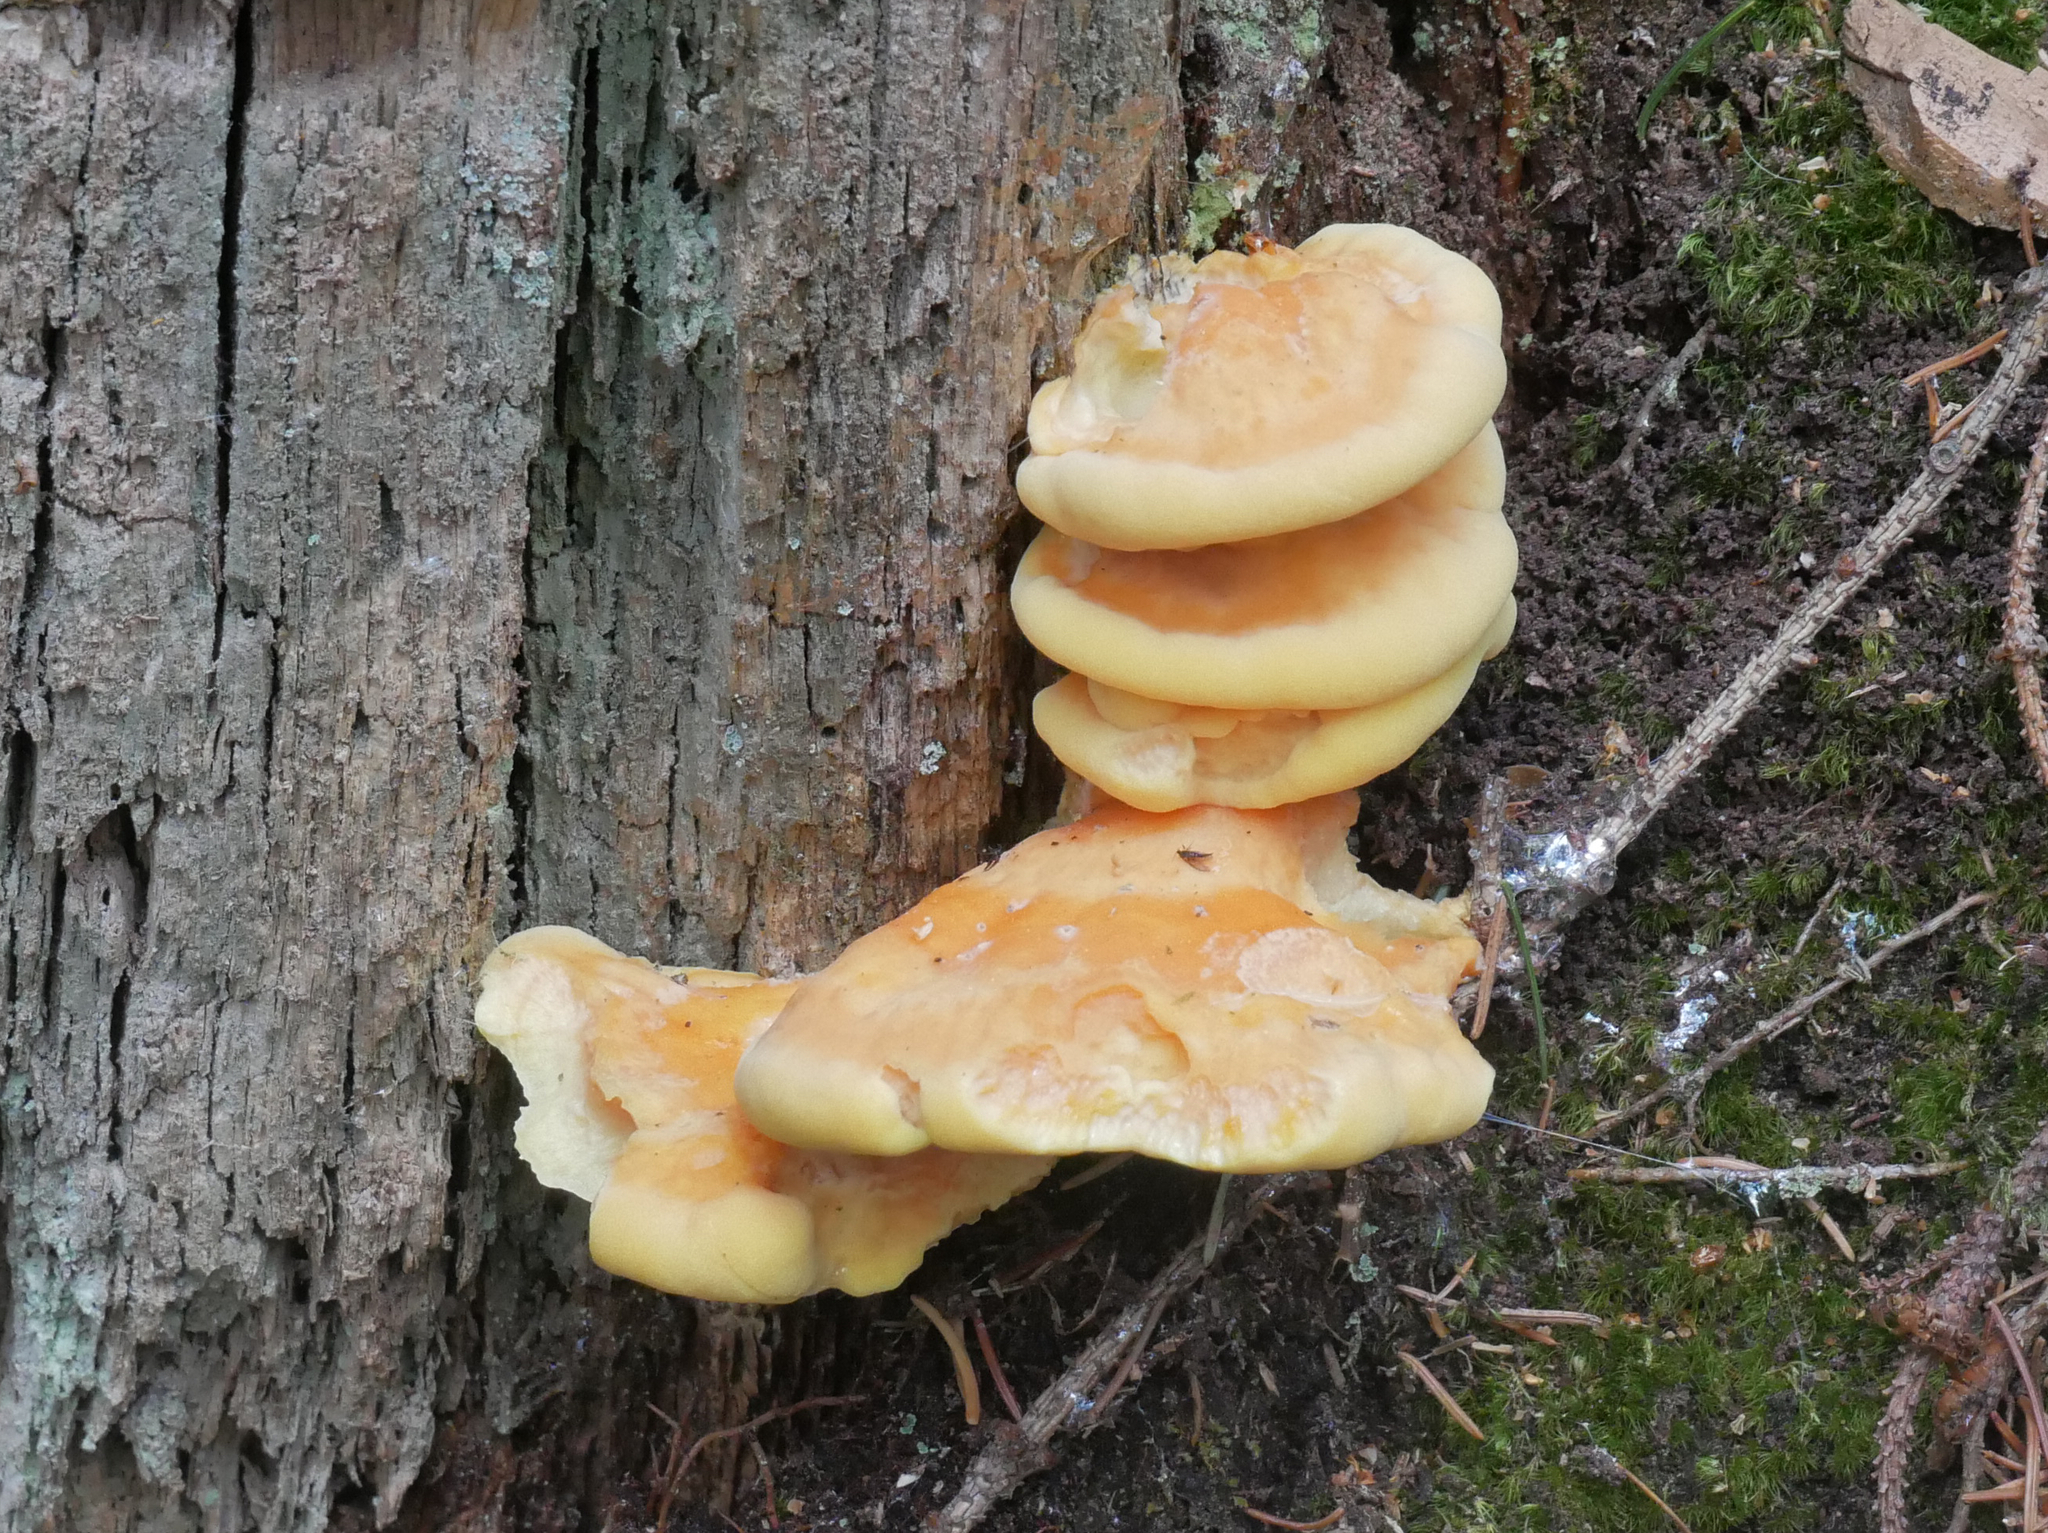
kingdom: Fungi
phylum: Basidiomycota
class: Agaricomycetes
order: Polyporales
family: Laetiporaceae
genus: Laetiporus
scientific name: Laetiporus sulphureus
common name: Chicken of the woods
